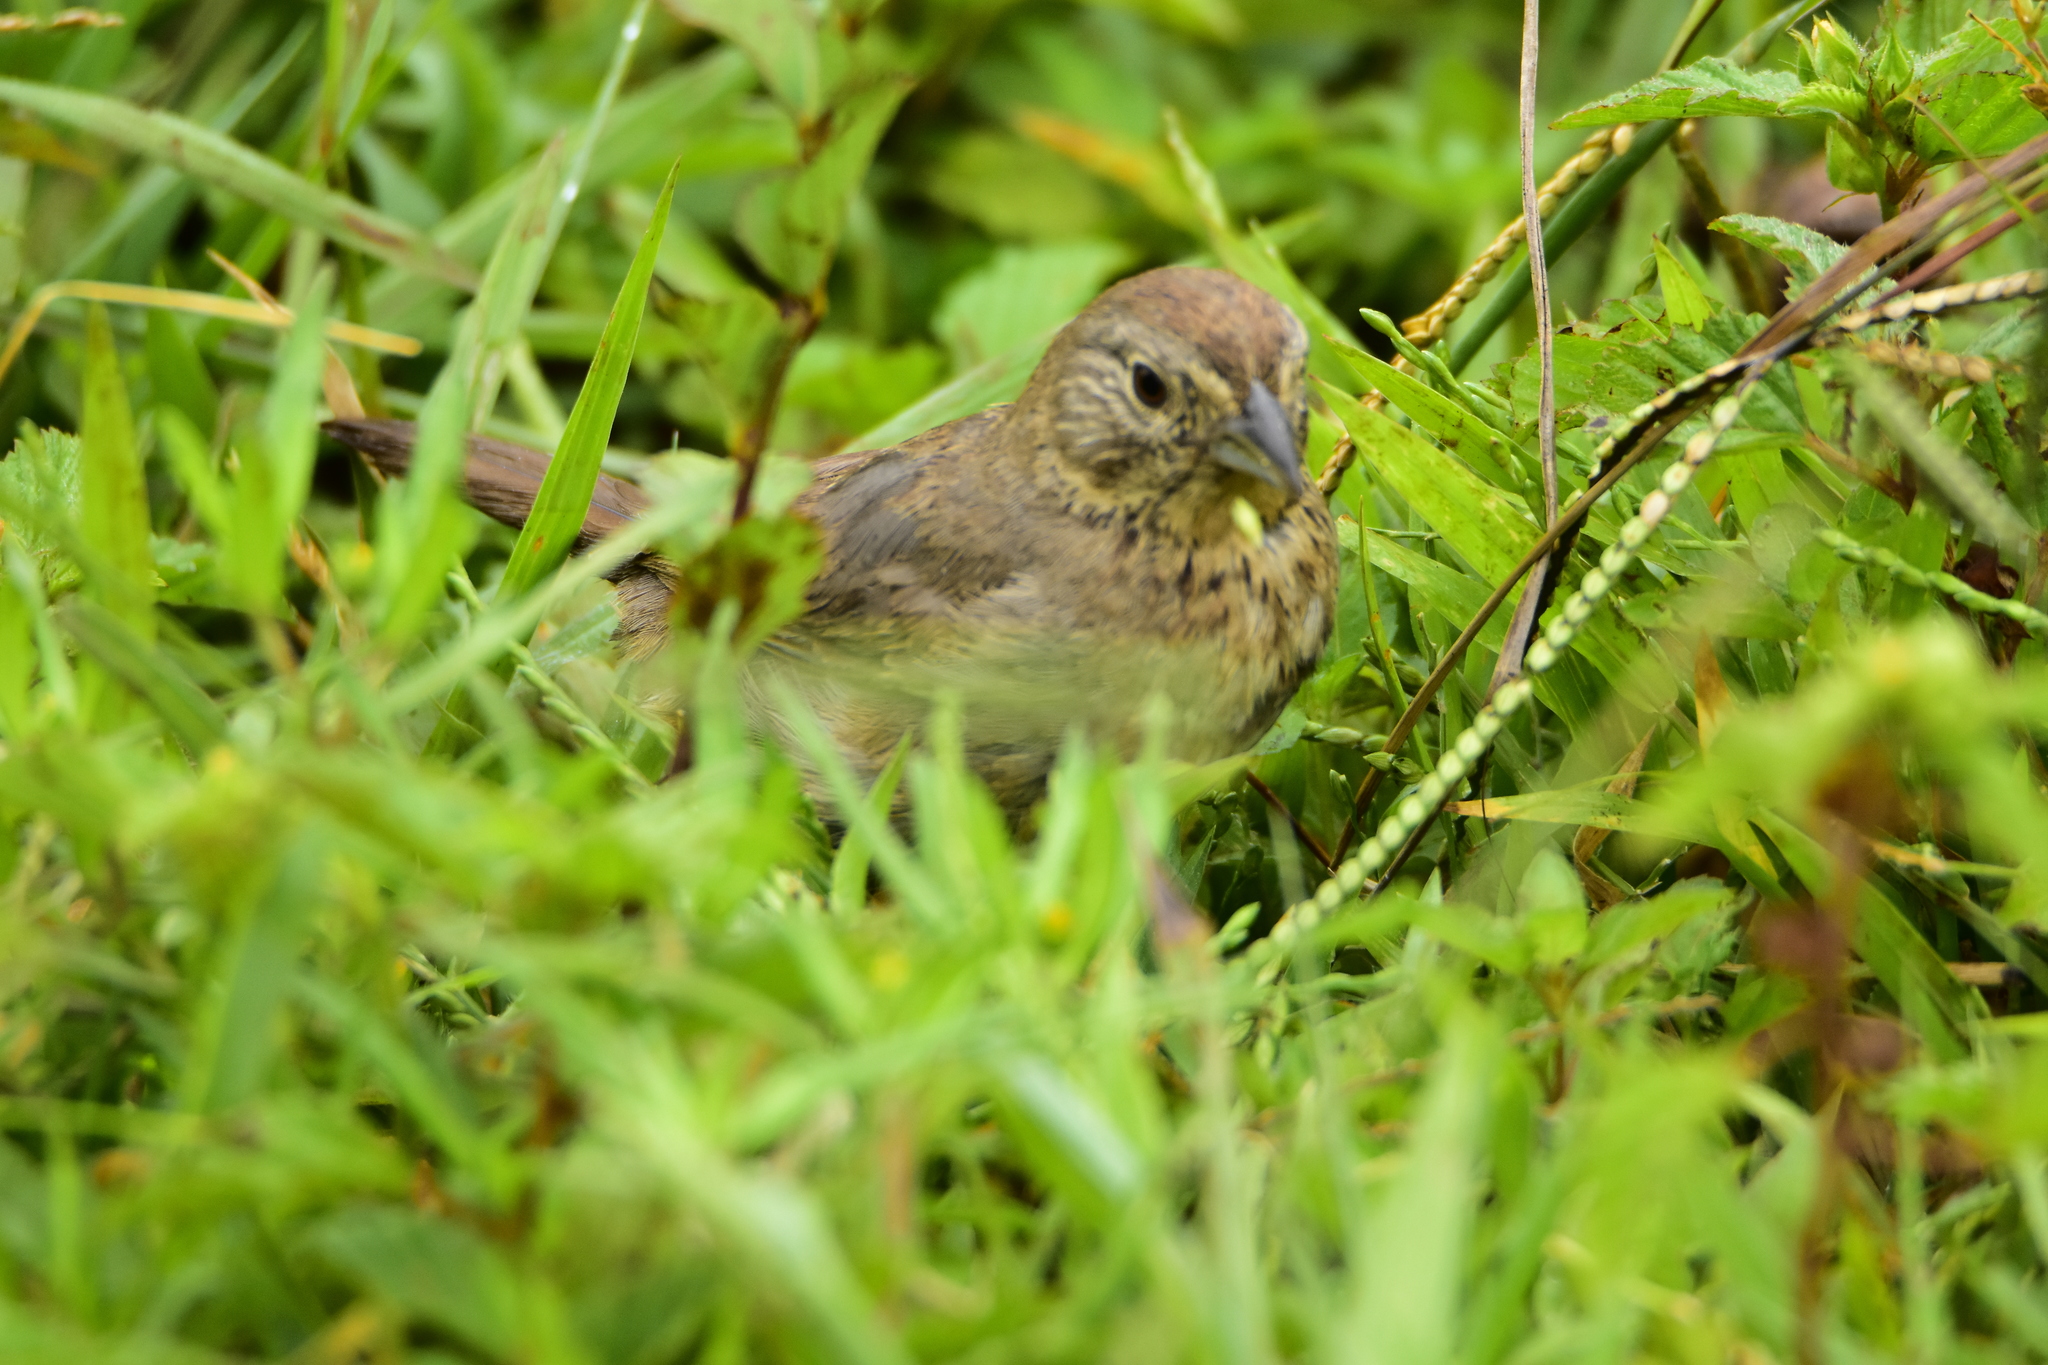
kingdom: Animalia
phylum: Chordata
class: Aves
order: Passeriformes
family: Passerellidae
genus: Melozone
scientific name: Melozone fusca
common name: Canyon towhee
